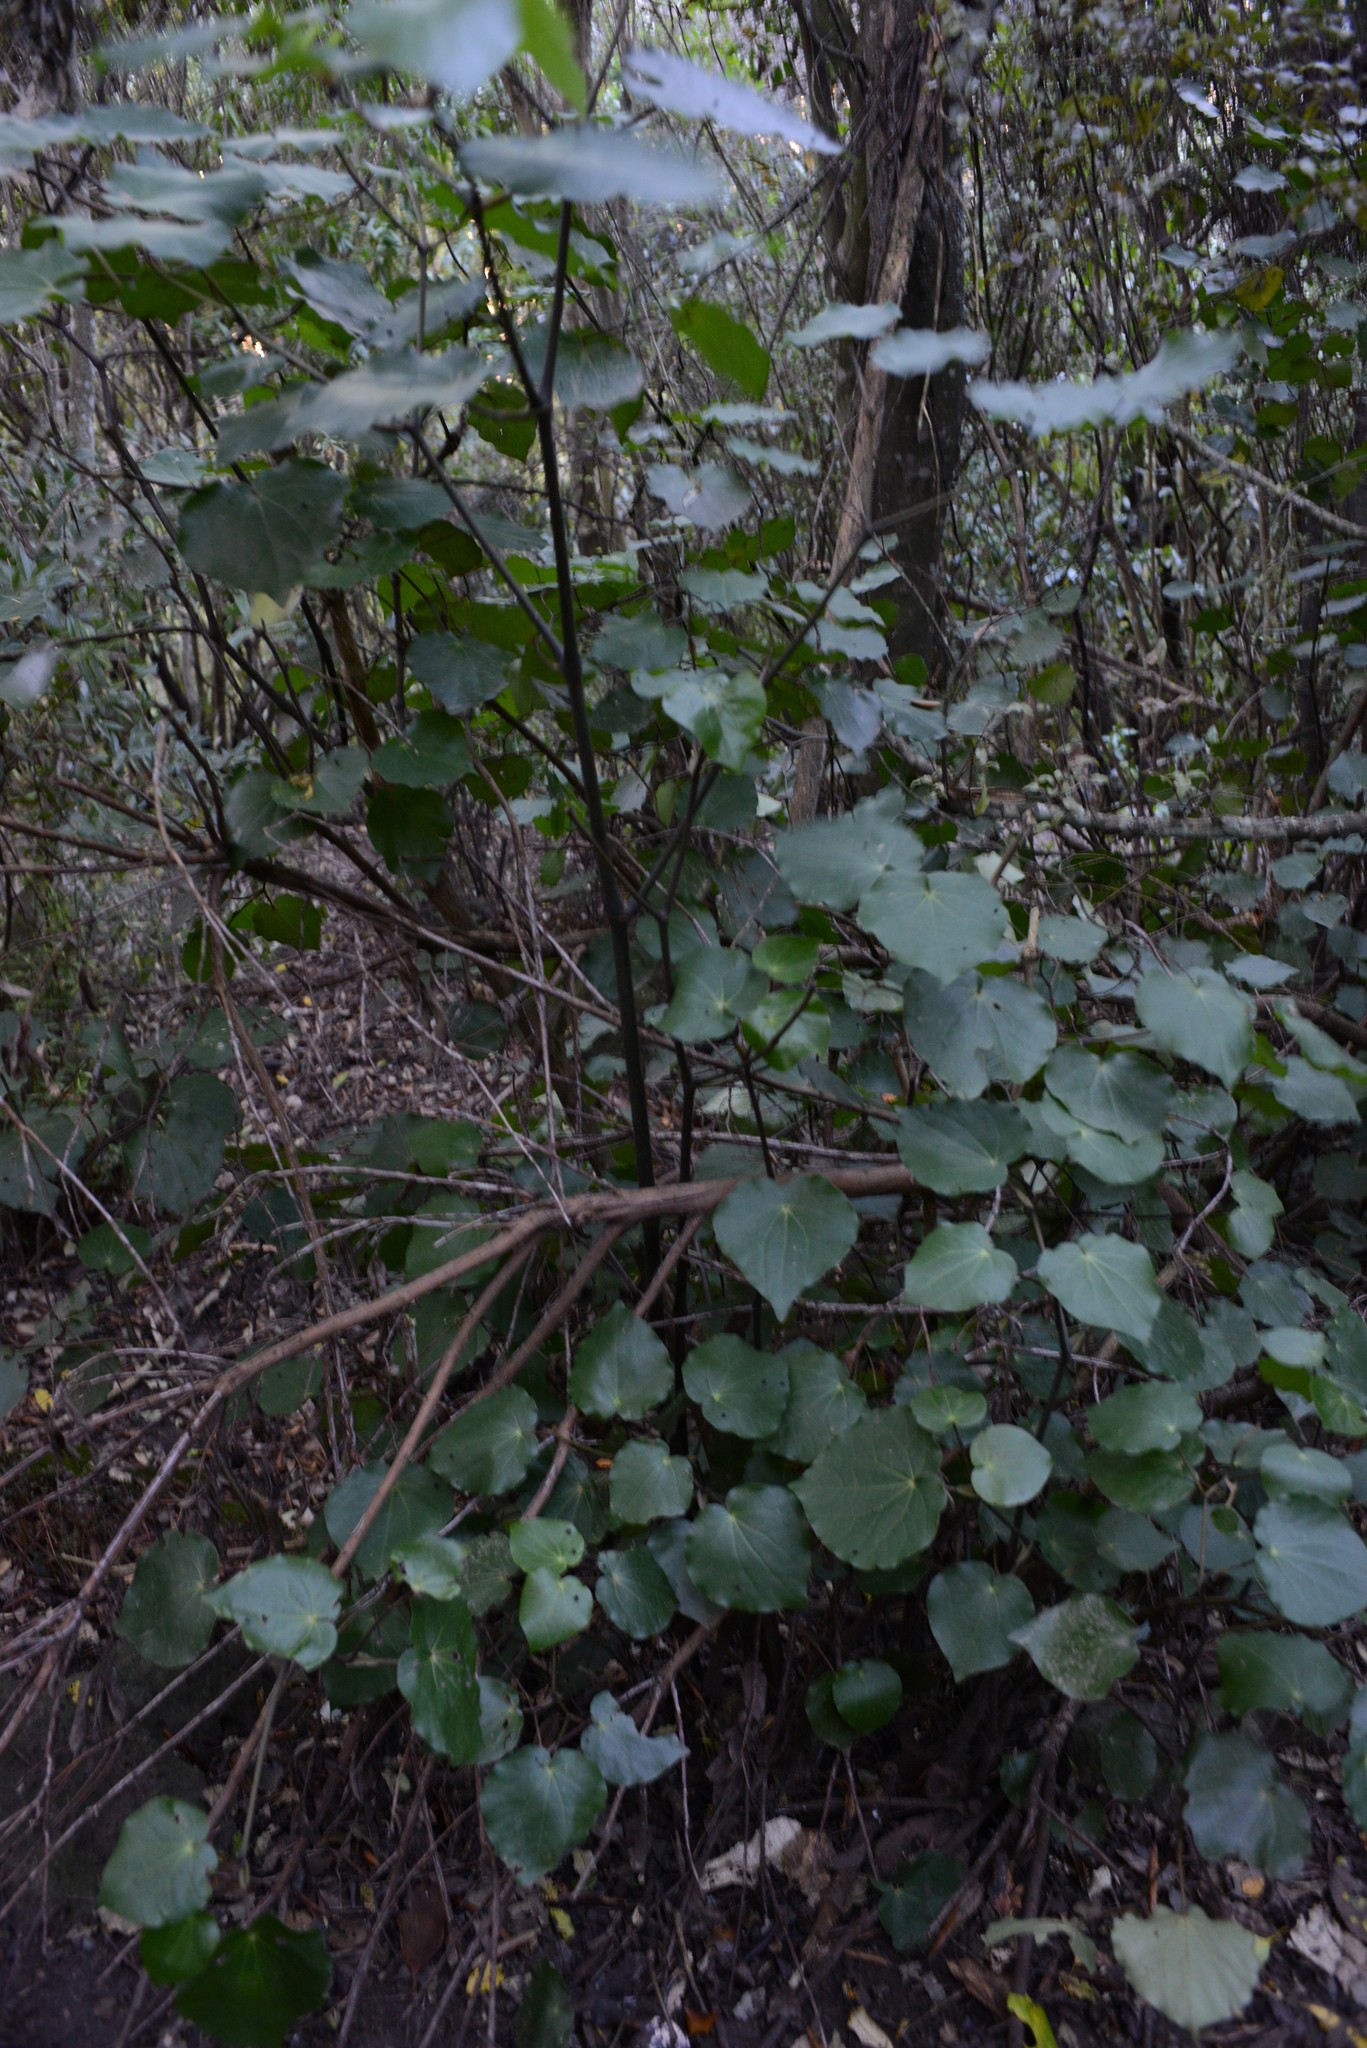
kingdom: Plantae
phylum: Tracheophyta
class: Magnoliopsida
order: Piperales
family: Piperaceae
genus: Macropiper
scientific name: Macropiper excelsum
